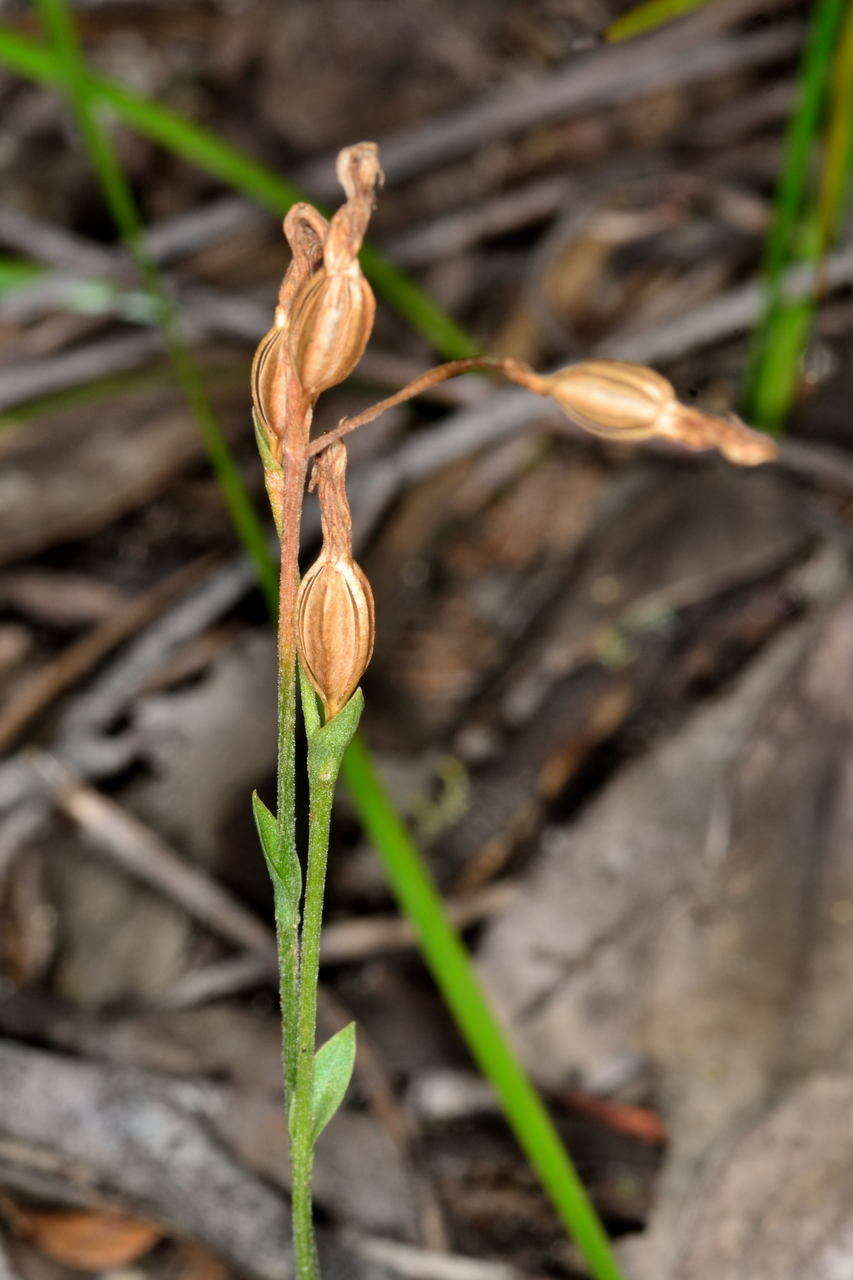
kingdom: Plantae
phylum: Tracheophyta
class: Liliopsida
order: Asparagales
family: Orchidaceae
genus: Pterostylis
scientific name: Pterostylis parviflora
